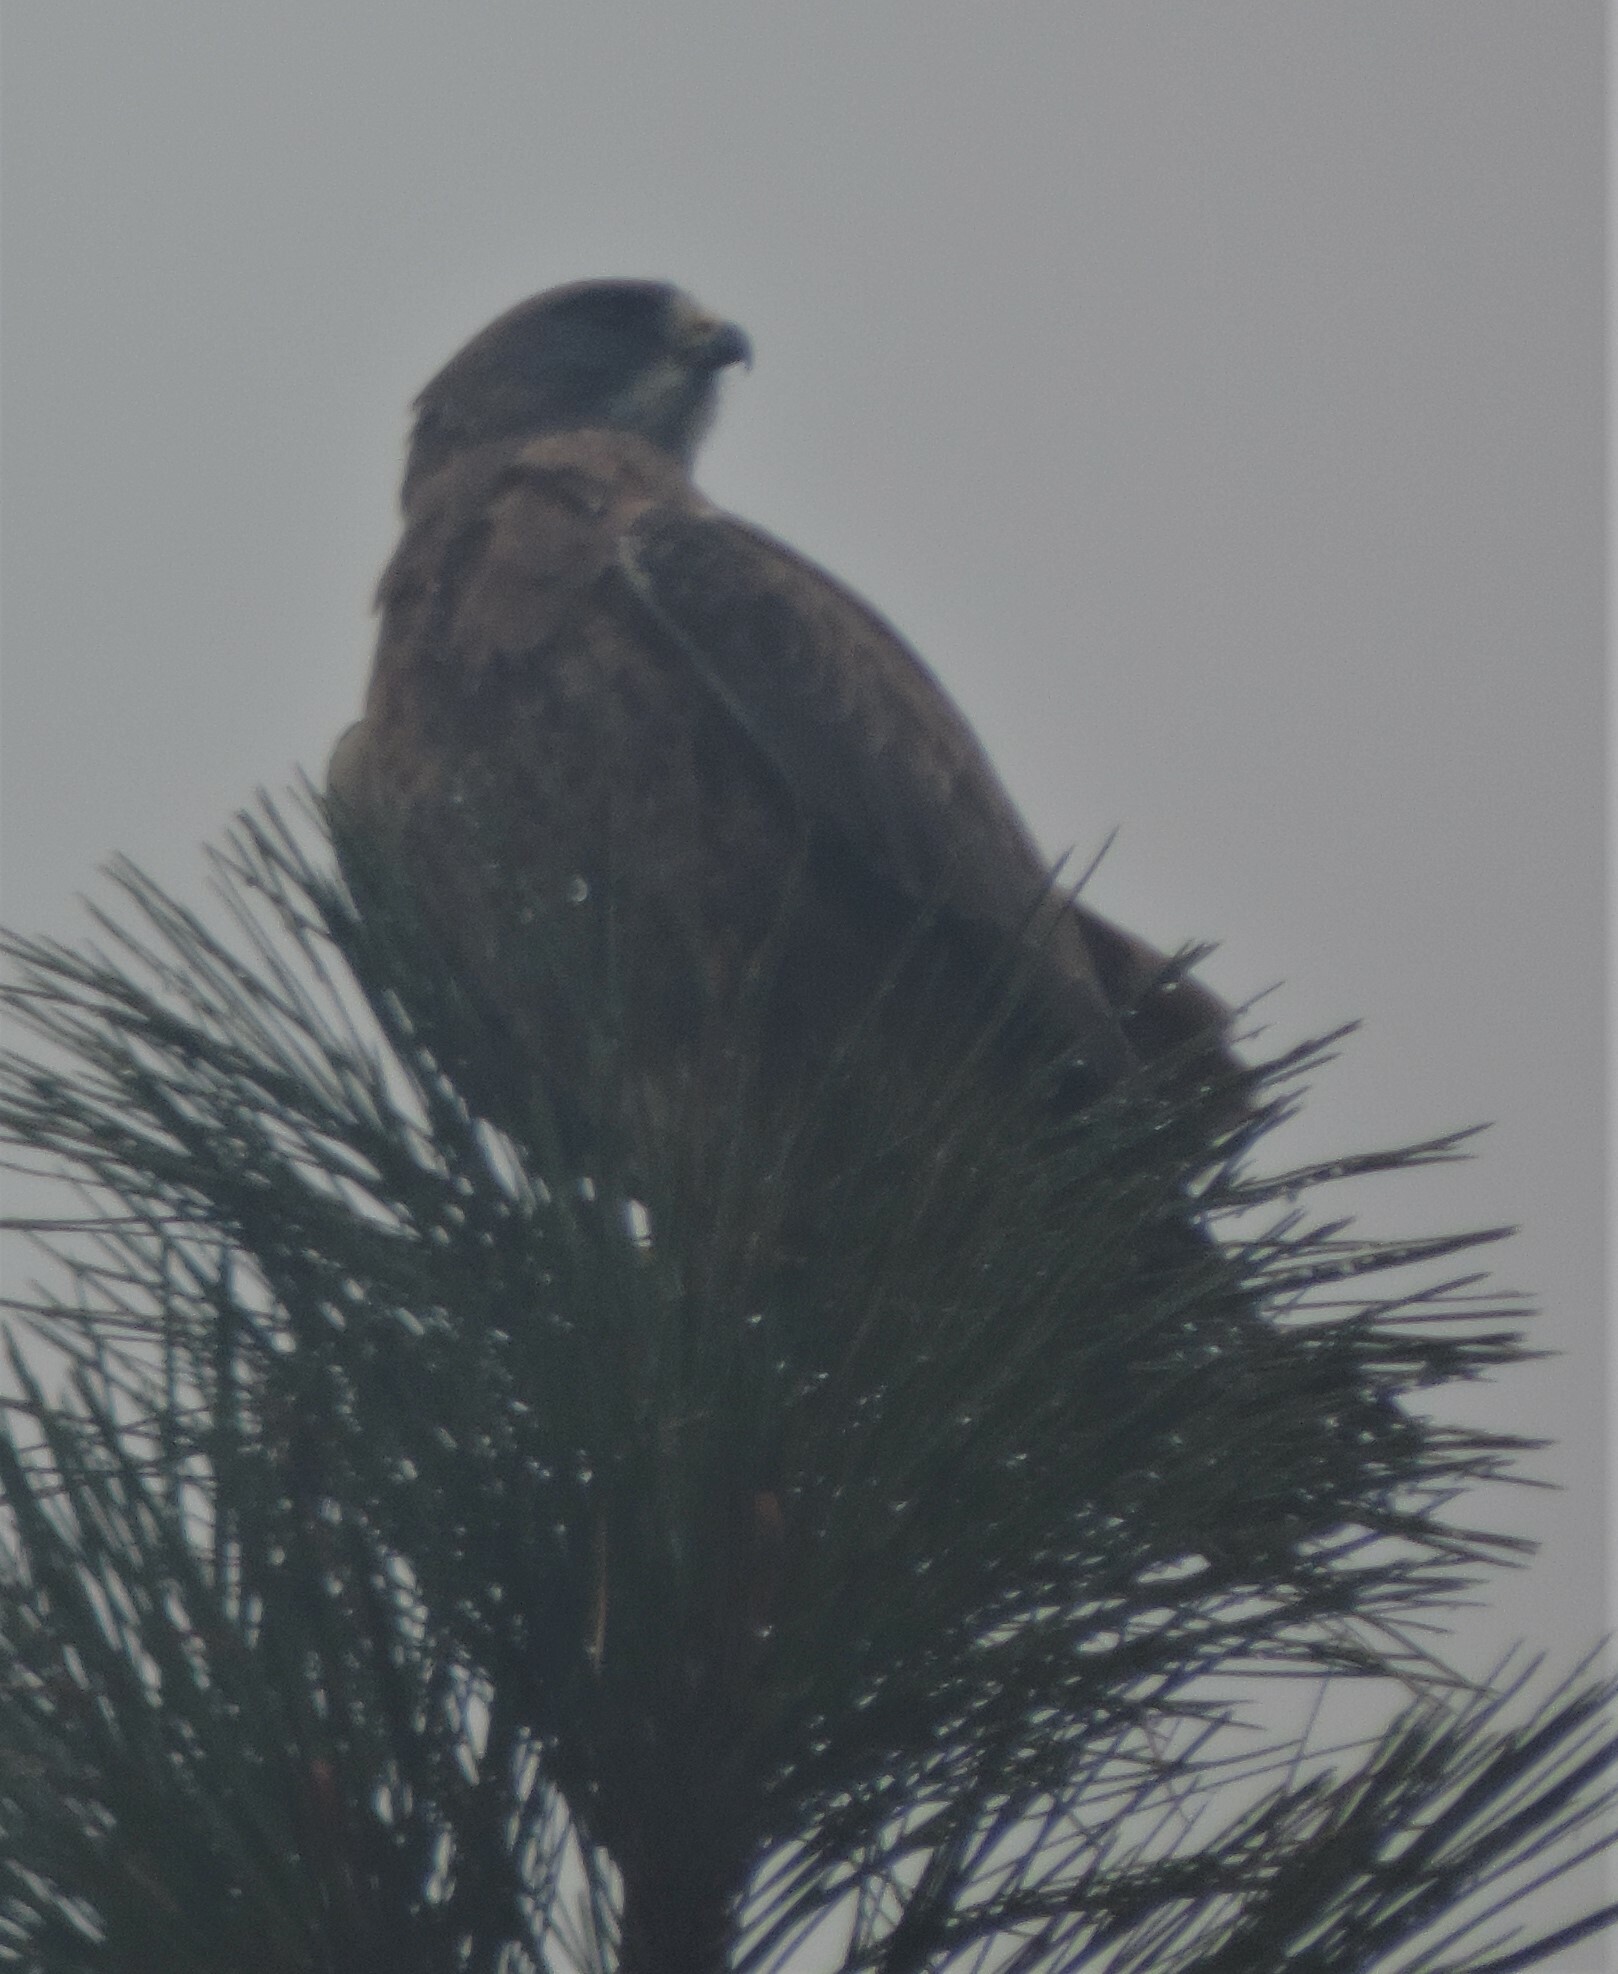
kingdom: Animalia
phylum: Chordata
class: Aves
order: Accipitriformes
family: Accipitridae
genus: Buteo
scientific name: Buteo swainsoni
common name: Swainson's hawk
